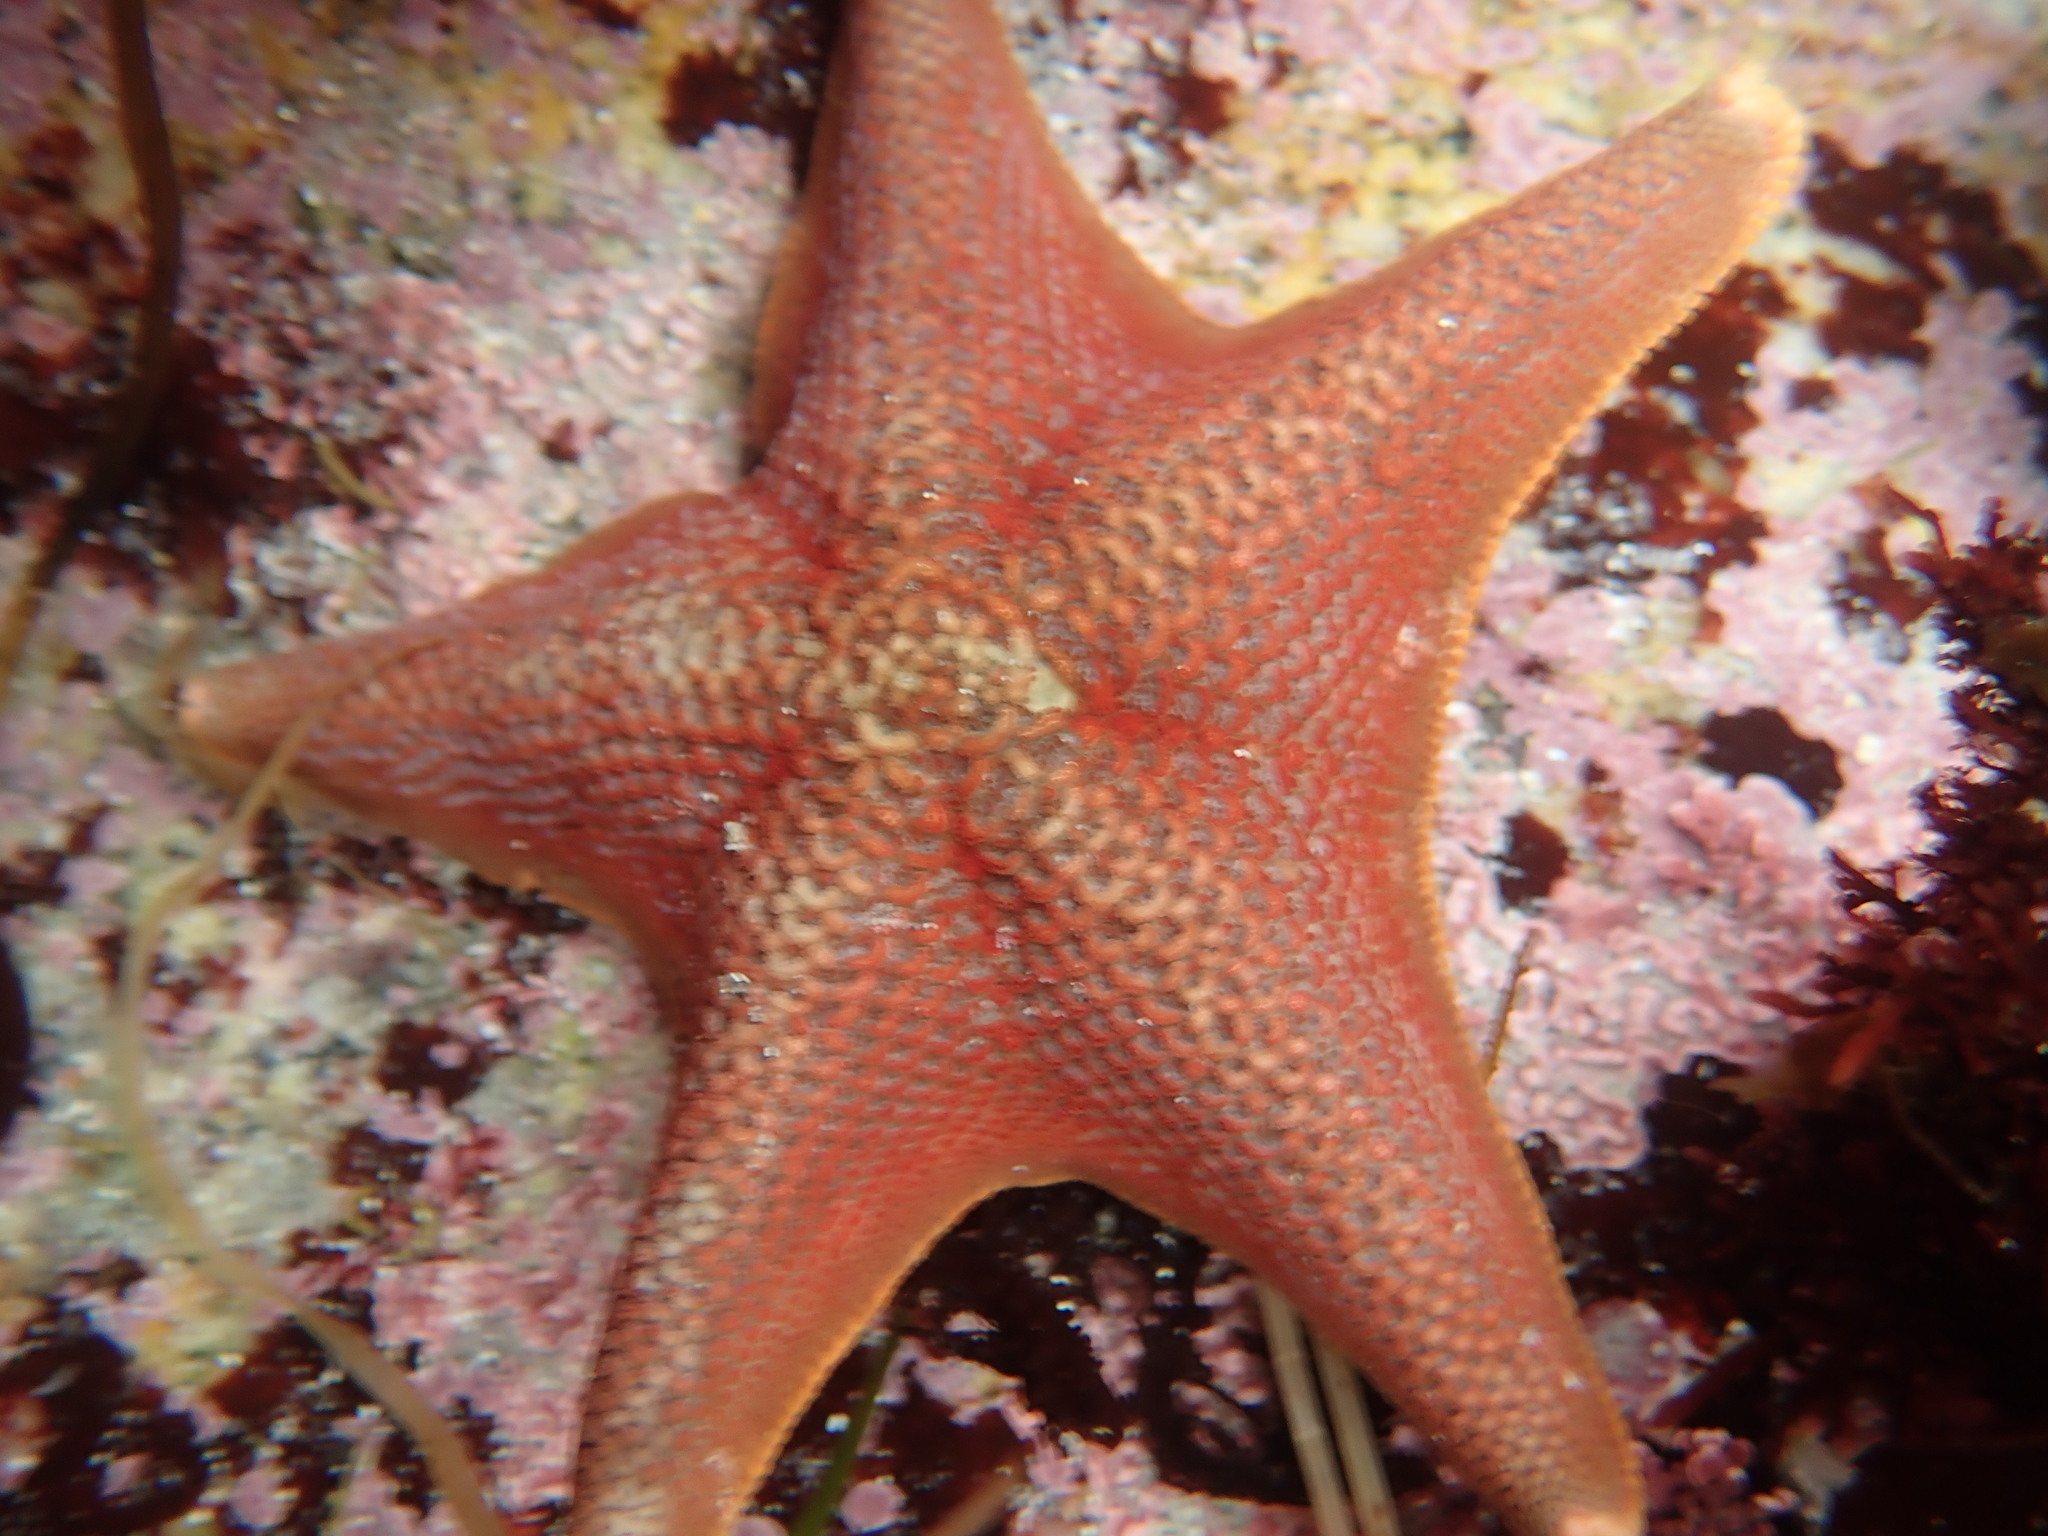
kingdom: Animalia
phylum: Echinodermata
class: Asteroidea
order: Valvatida
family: Asterinidae
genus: Patiria
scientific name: Patiria miniata
